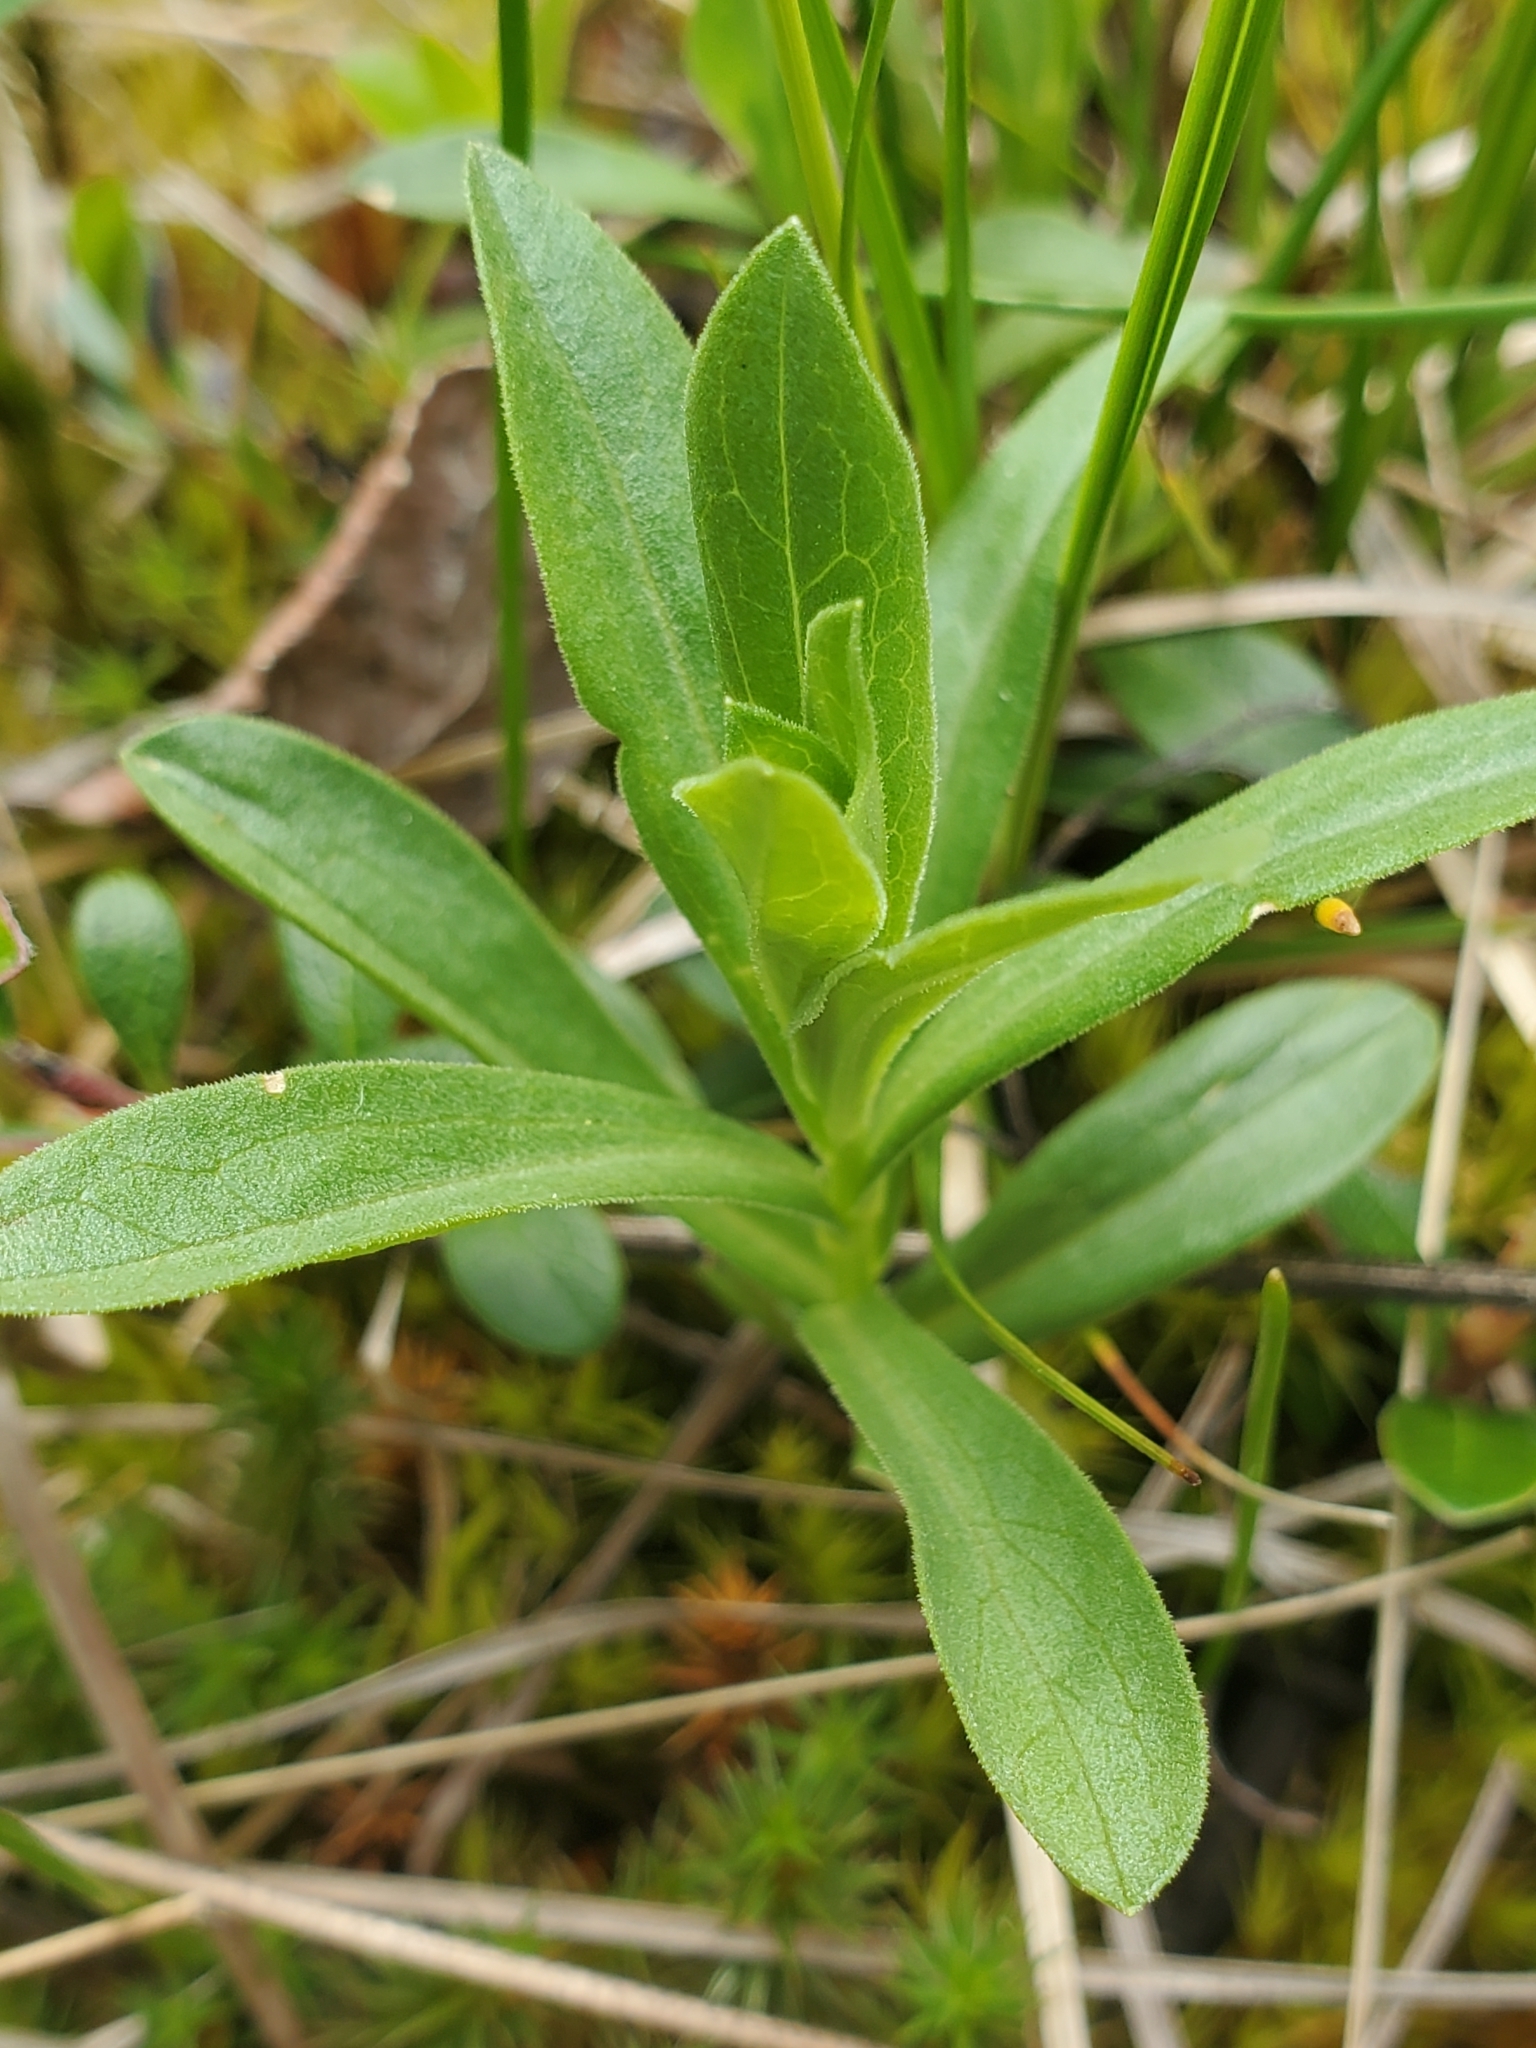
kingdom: Plantae
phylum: Tracheophyta
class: Magnoliopsida
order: Asterales
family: Asteraceae
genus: Sericocarpus
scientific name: Sericocarpus rigidus
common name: Columbia white-top aster
